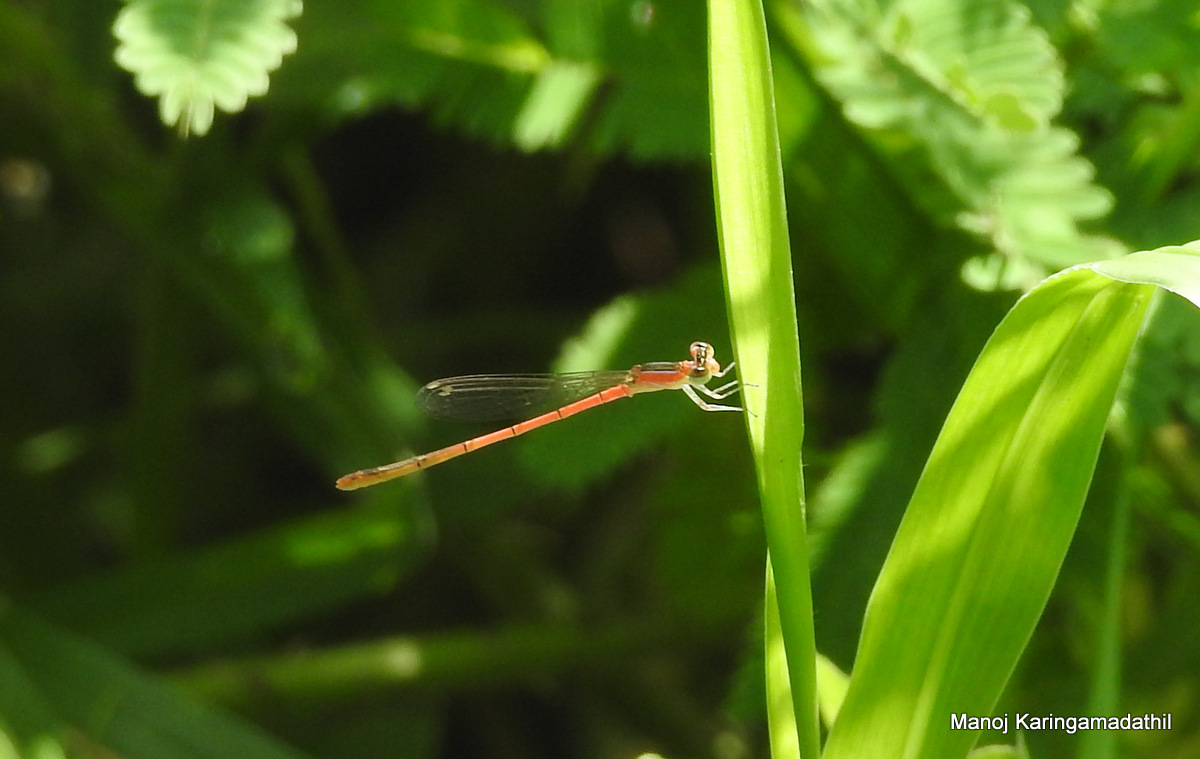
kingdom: Animalia
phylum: Arthropoda
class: Insecta
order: Odonata
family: Coenagrionidae
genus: Agriocnemis
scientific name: Agriocnemis pygmaea
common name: Pygmy wisp
